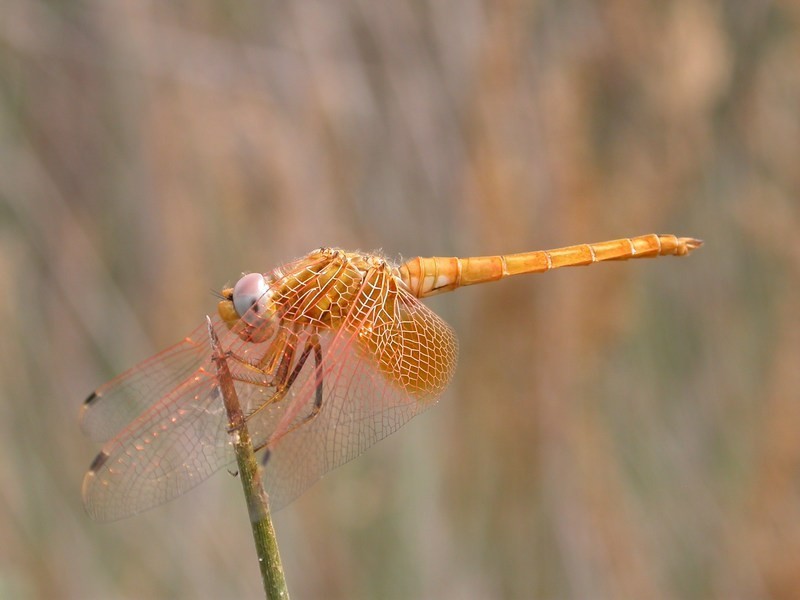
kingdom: Animalia
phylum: Arthropoda
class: Insecta
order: Odonata
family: Libellulidae
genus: Trithemis
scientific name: Trithemis kirbyi
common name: Kirby's dropwing
